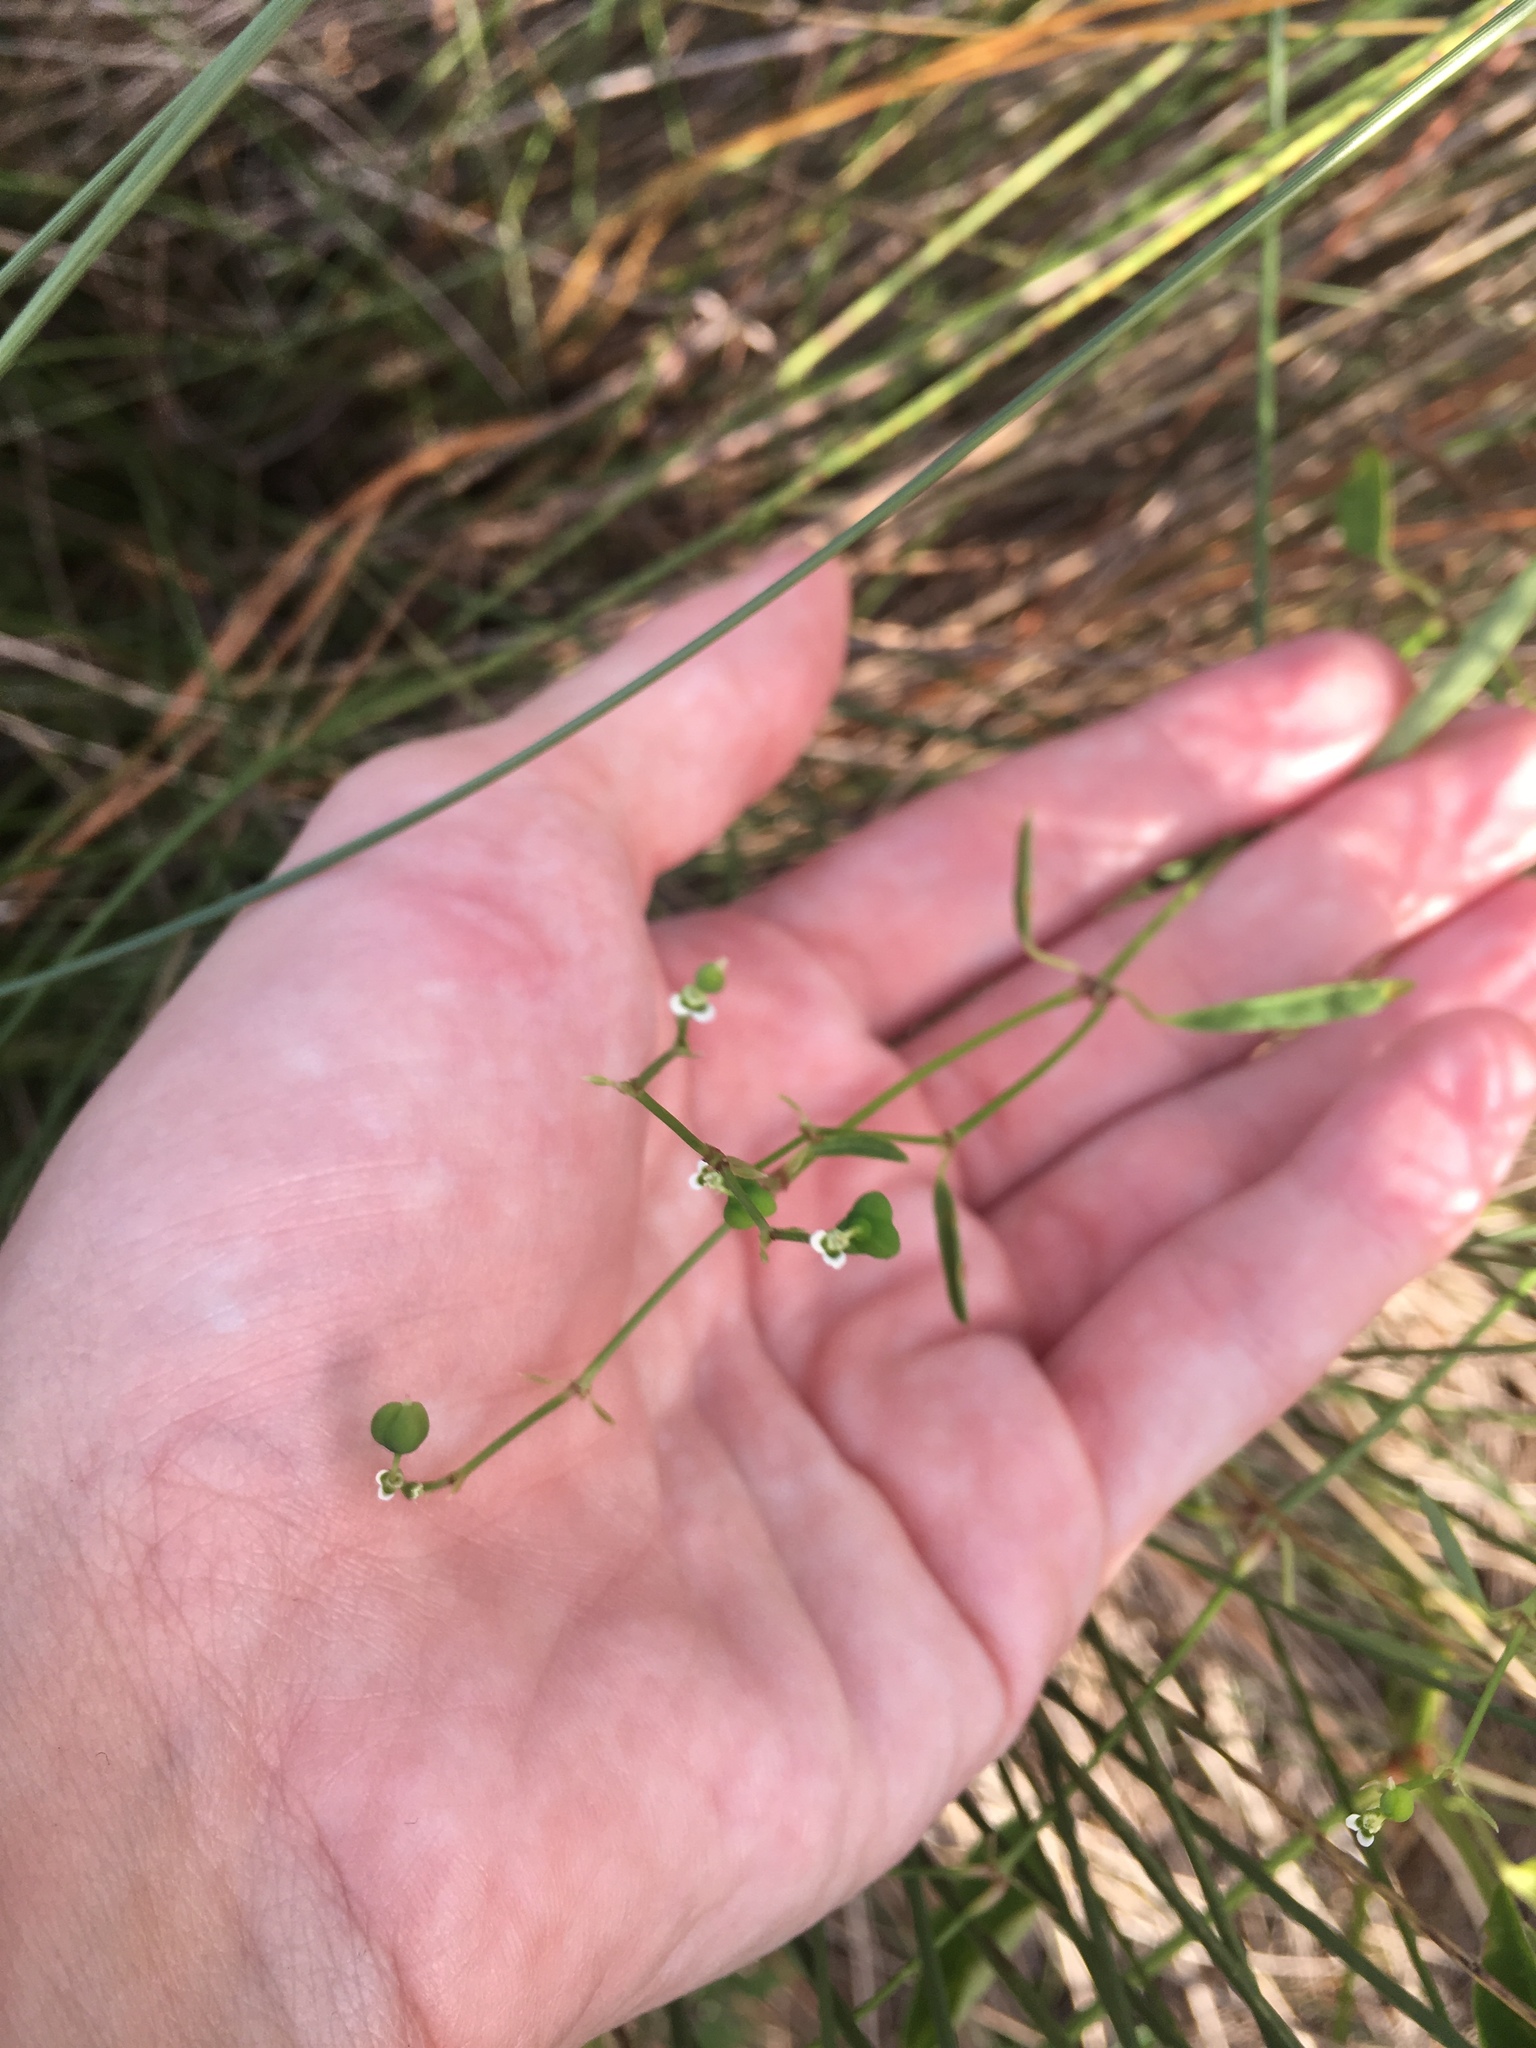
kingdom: Plantae
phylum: Tracheophyta
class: Magnoliopsida
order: Malpighiales
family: Euphorbiaceae
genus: Euphorbia
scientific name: Euphorbia graminea
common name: Grassleaf spurge
